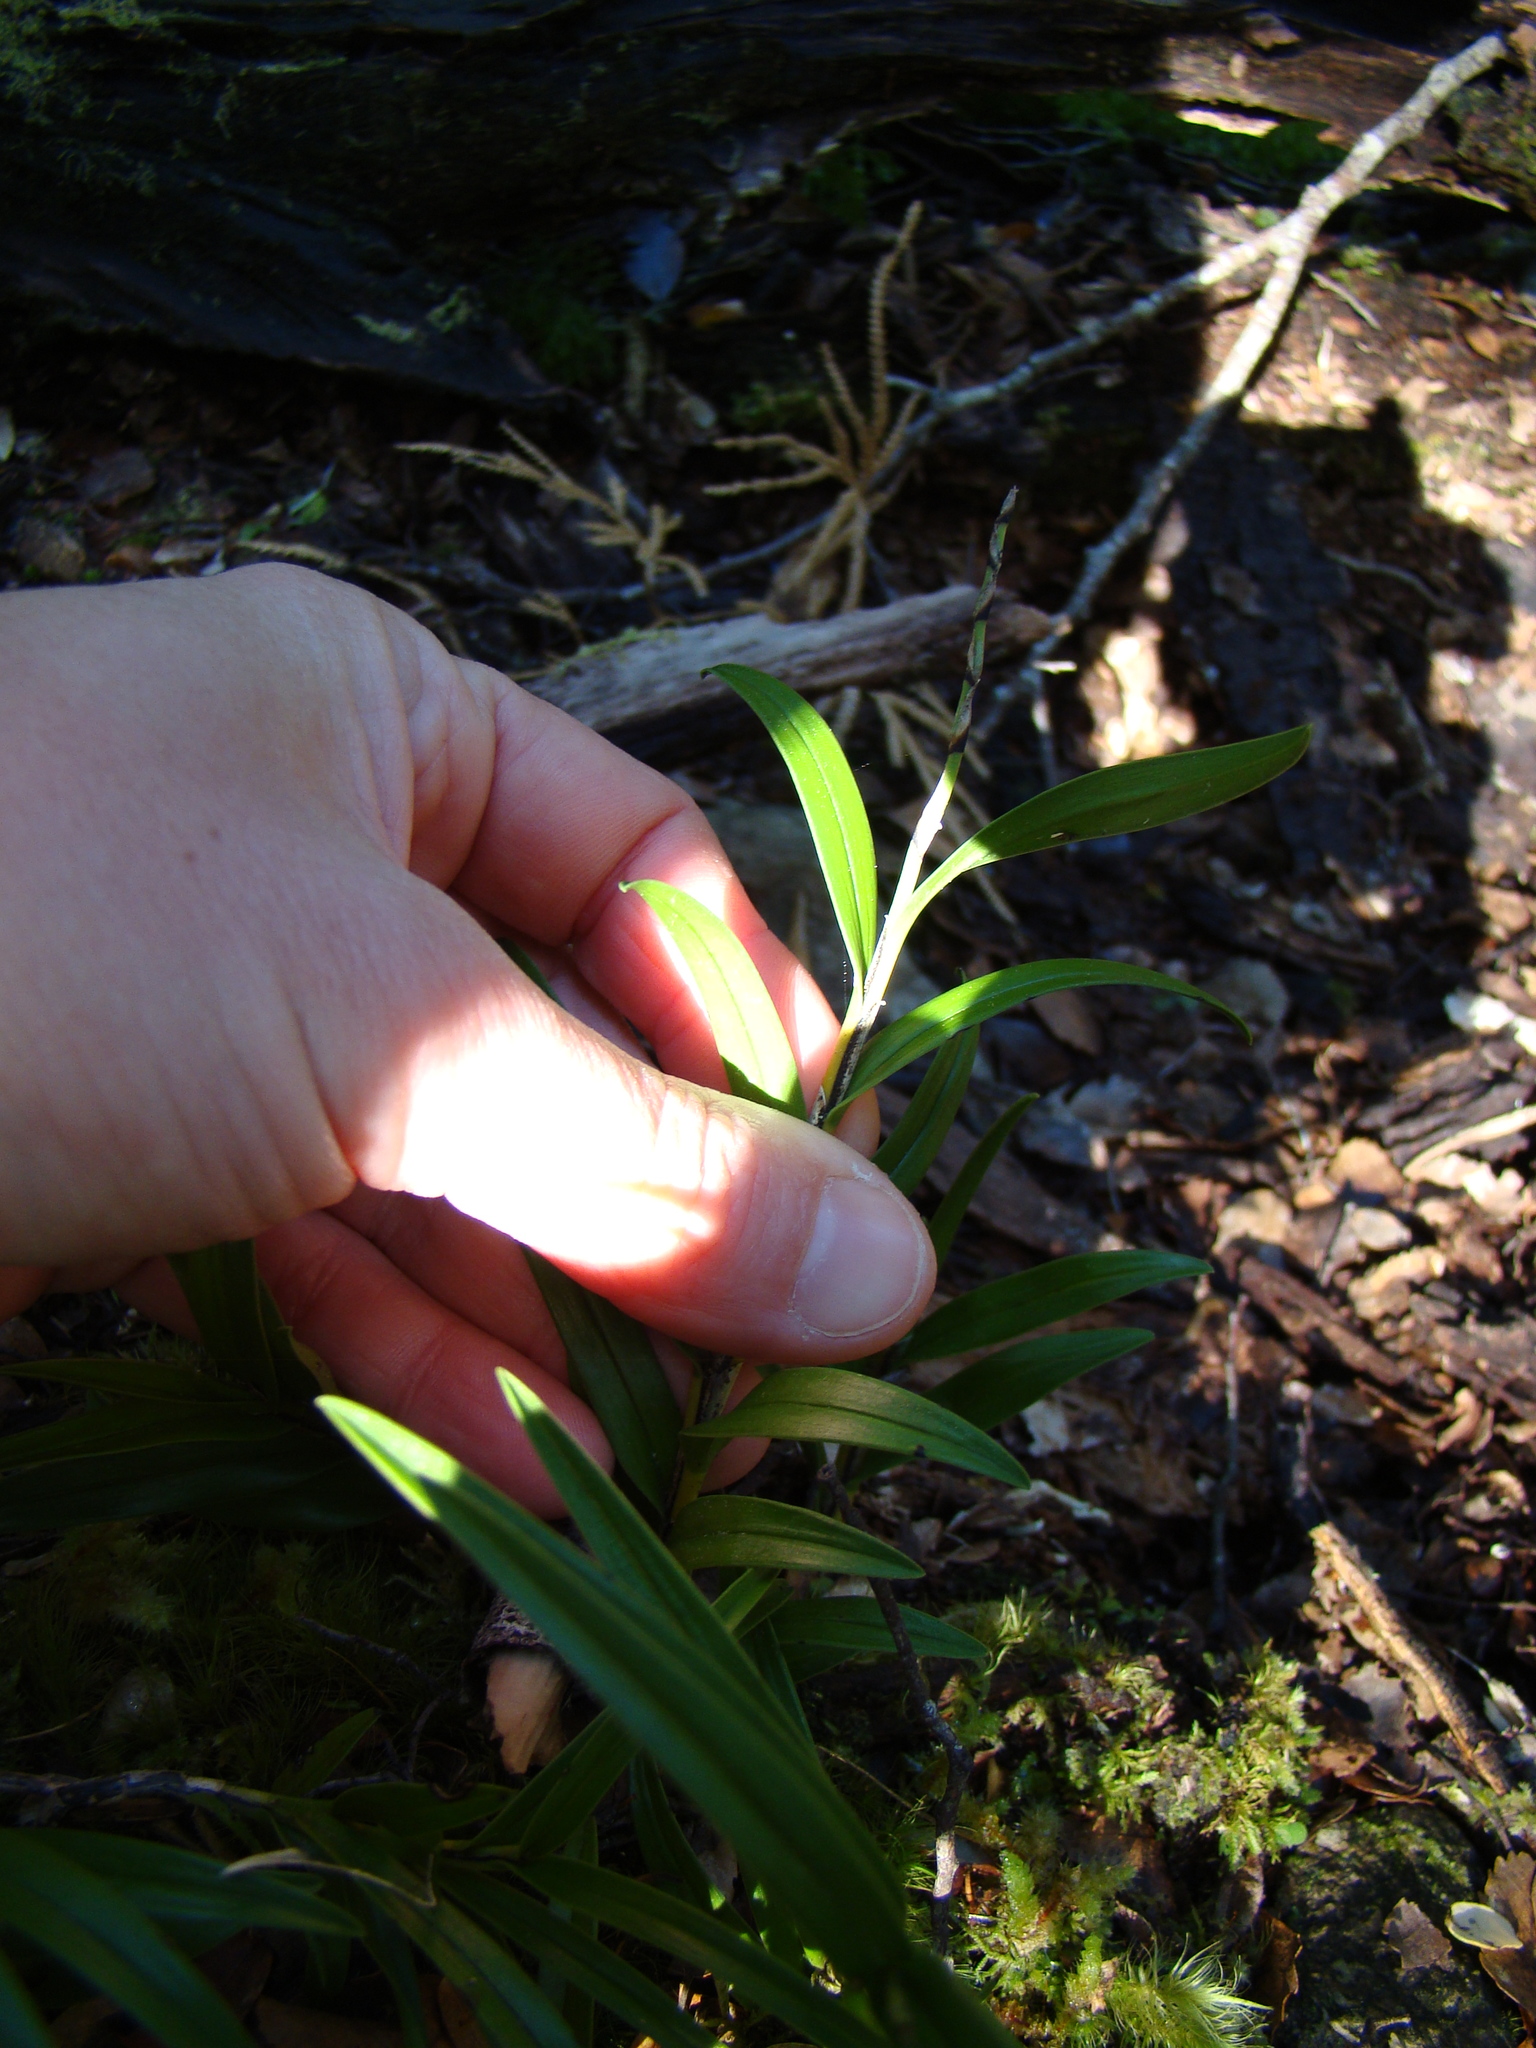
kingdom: Plantae
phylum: Tracheophyta
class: Liliopsida
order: Asparagales
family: Orchidaceae
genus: Earina
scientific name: Earina autumnalis
